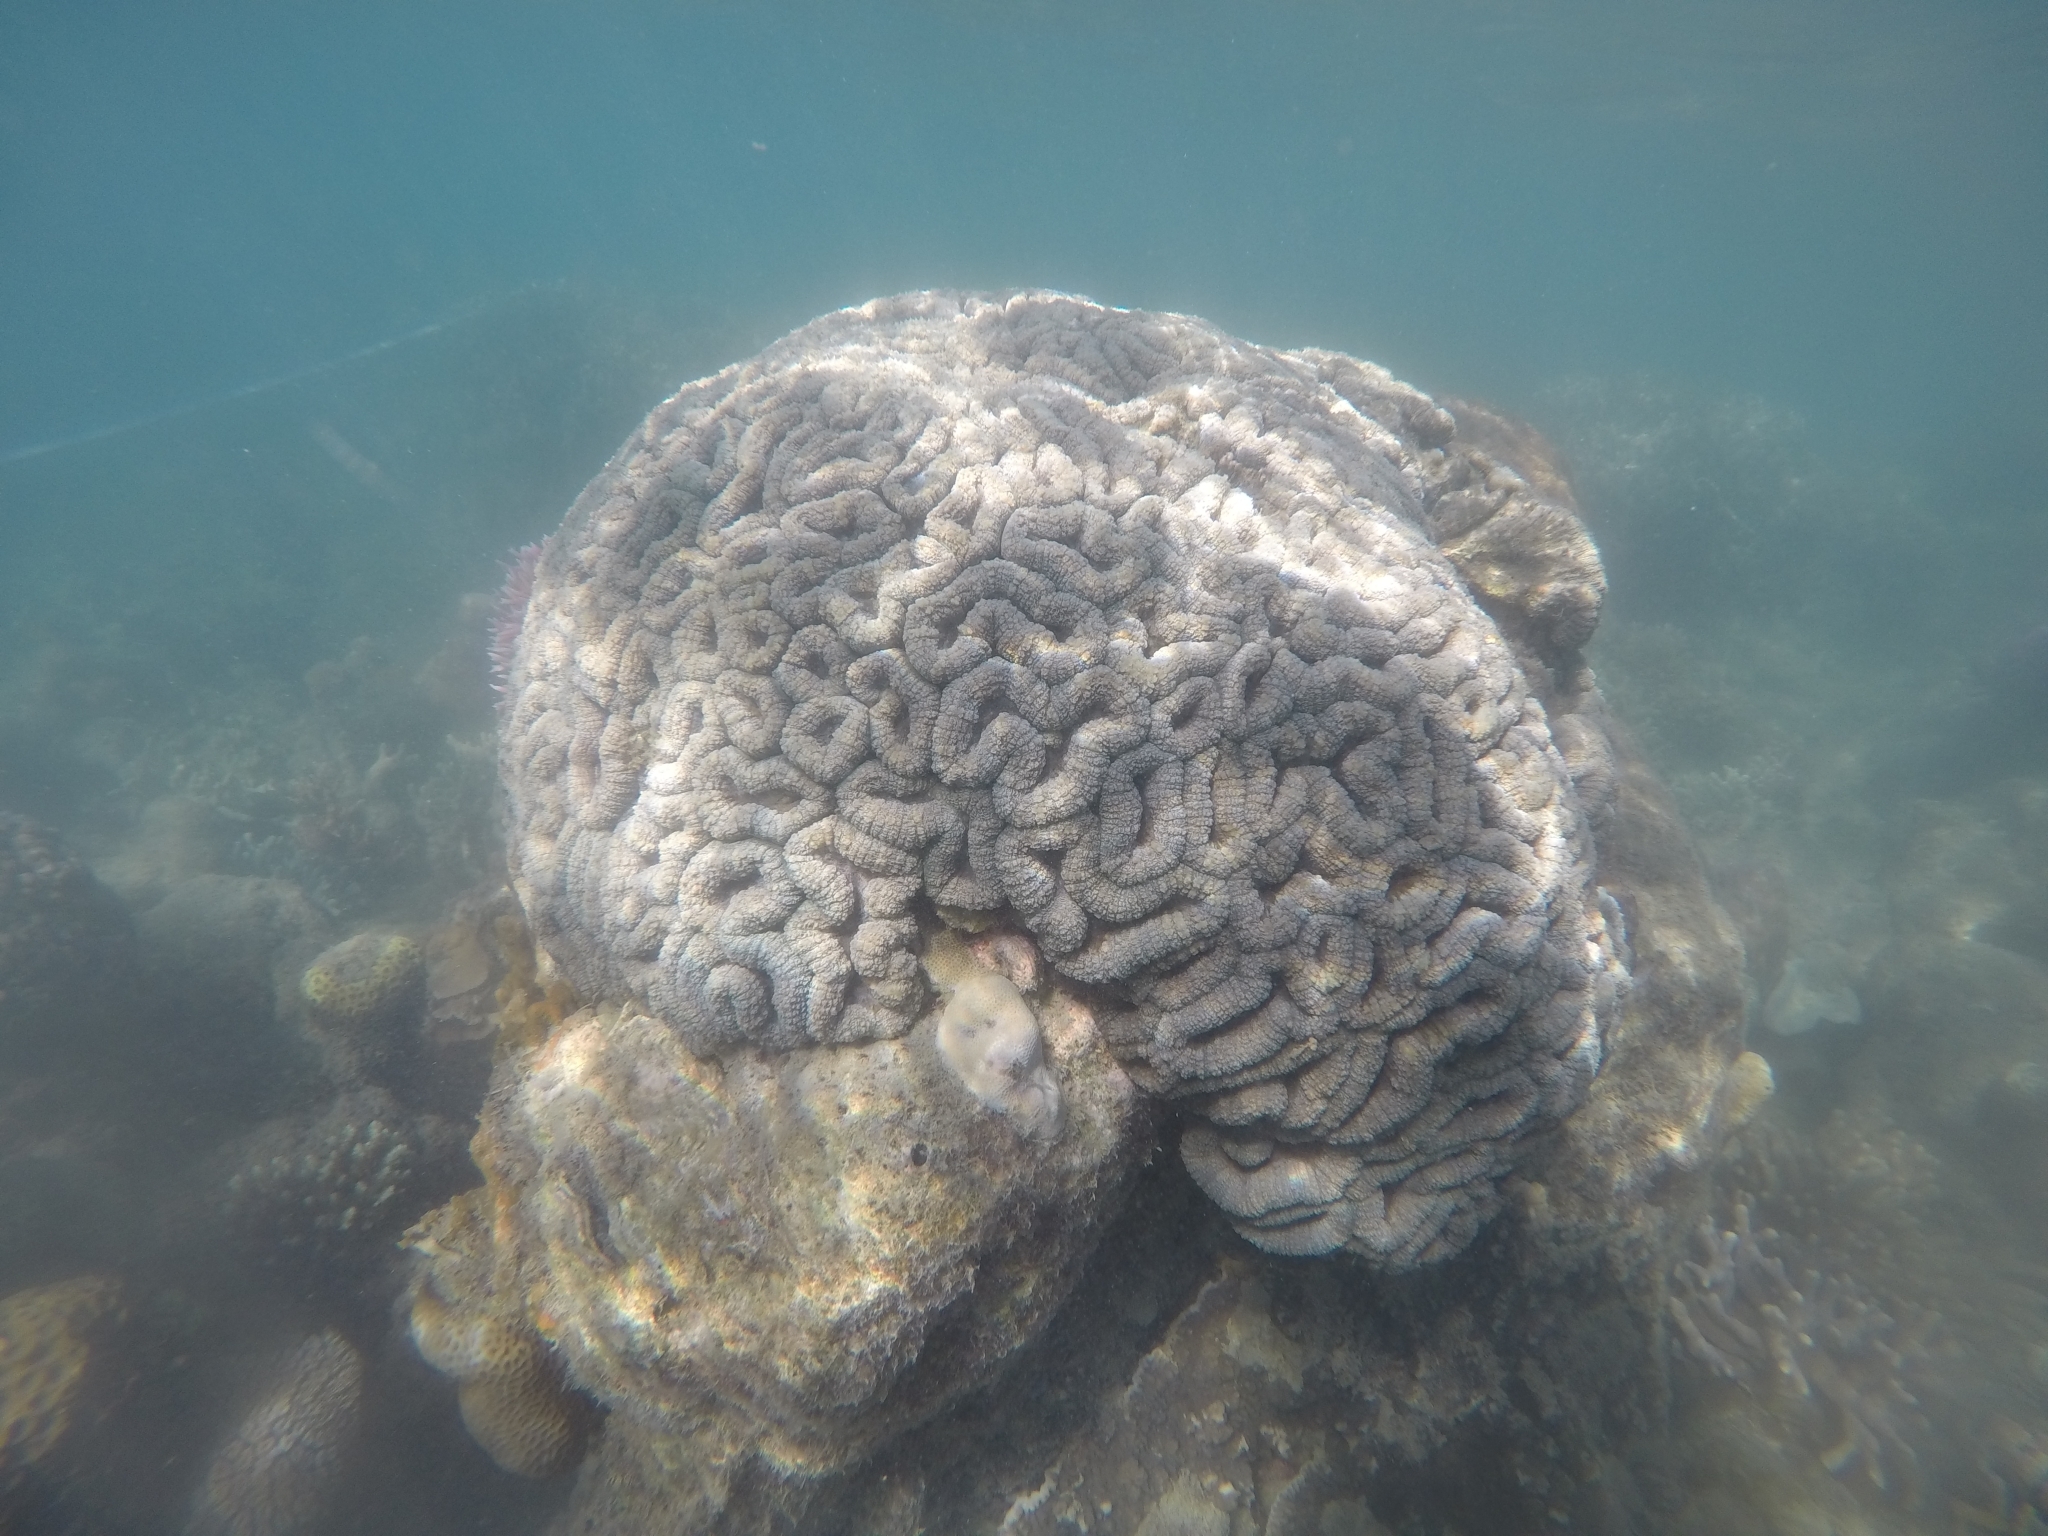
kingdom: Animalia
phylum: Cnidaria
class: Anthozoa
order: Scleractinia
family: Lobophylliidae
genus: Lobophyllia
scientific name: Lobophyllia hemprichii
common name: Lobed cactus coral
